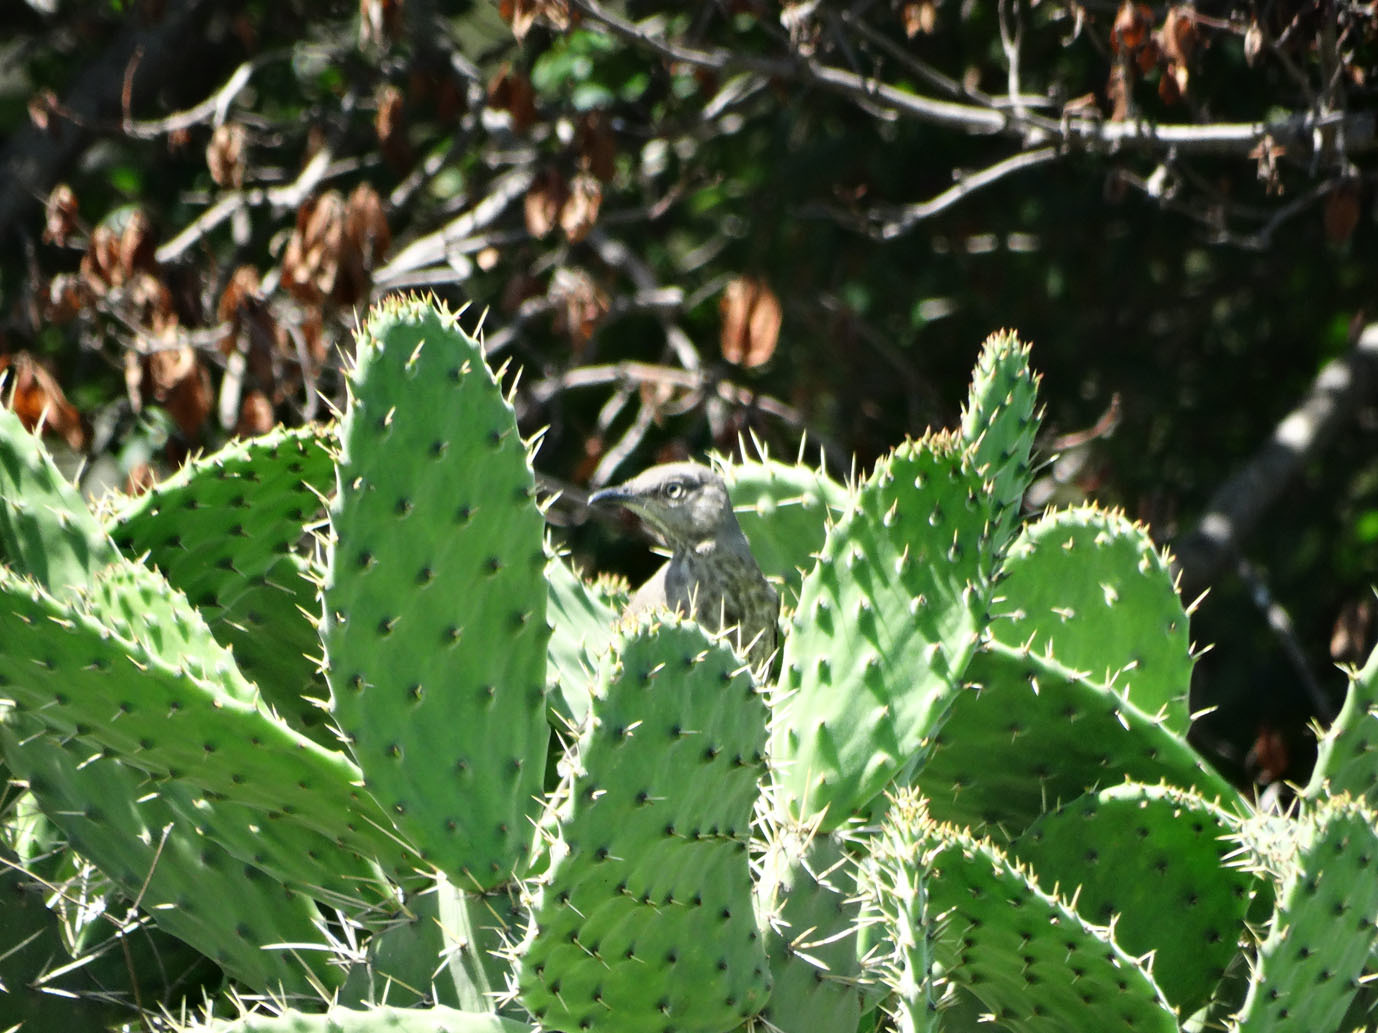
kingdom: Animalia
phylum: Chordata
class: Aves
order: Passeriformes
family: Mimidae
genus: Toxostoma
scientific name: Toxostoma curvirostre
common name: Curve-billed thrasher
